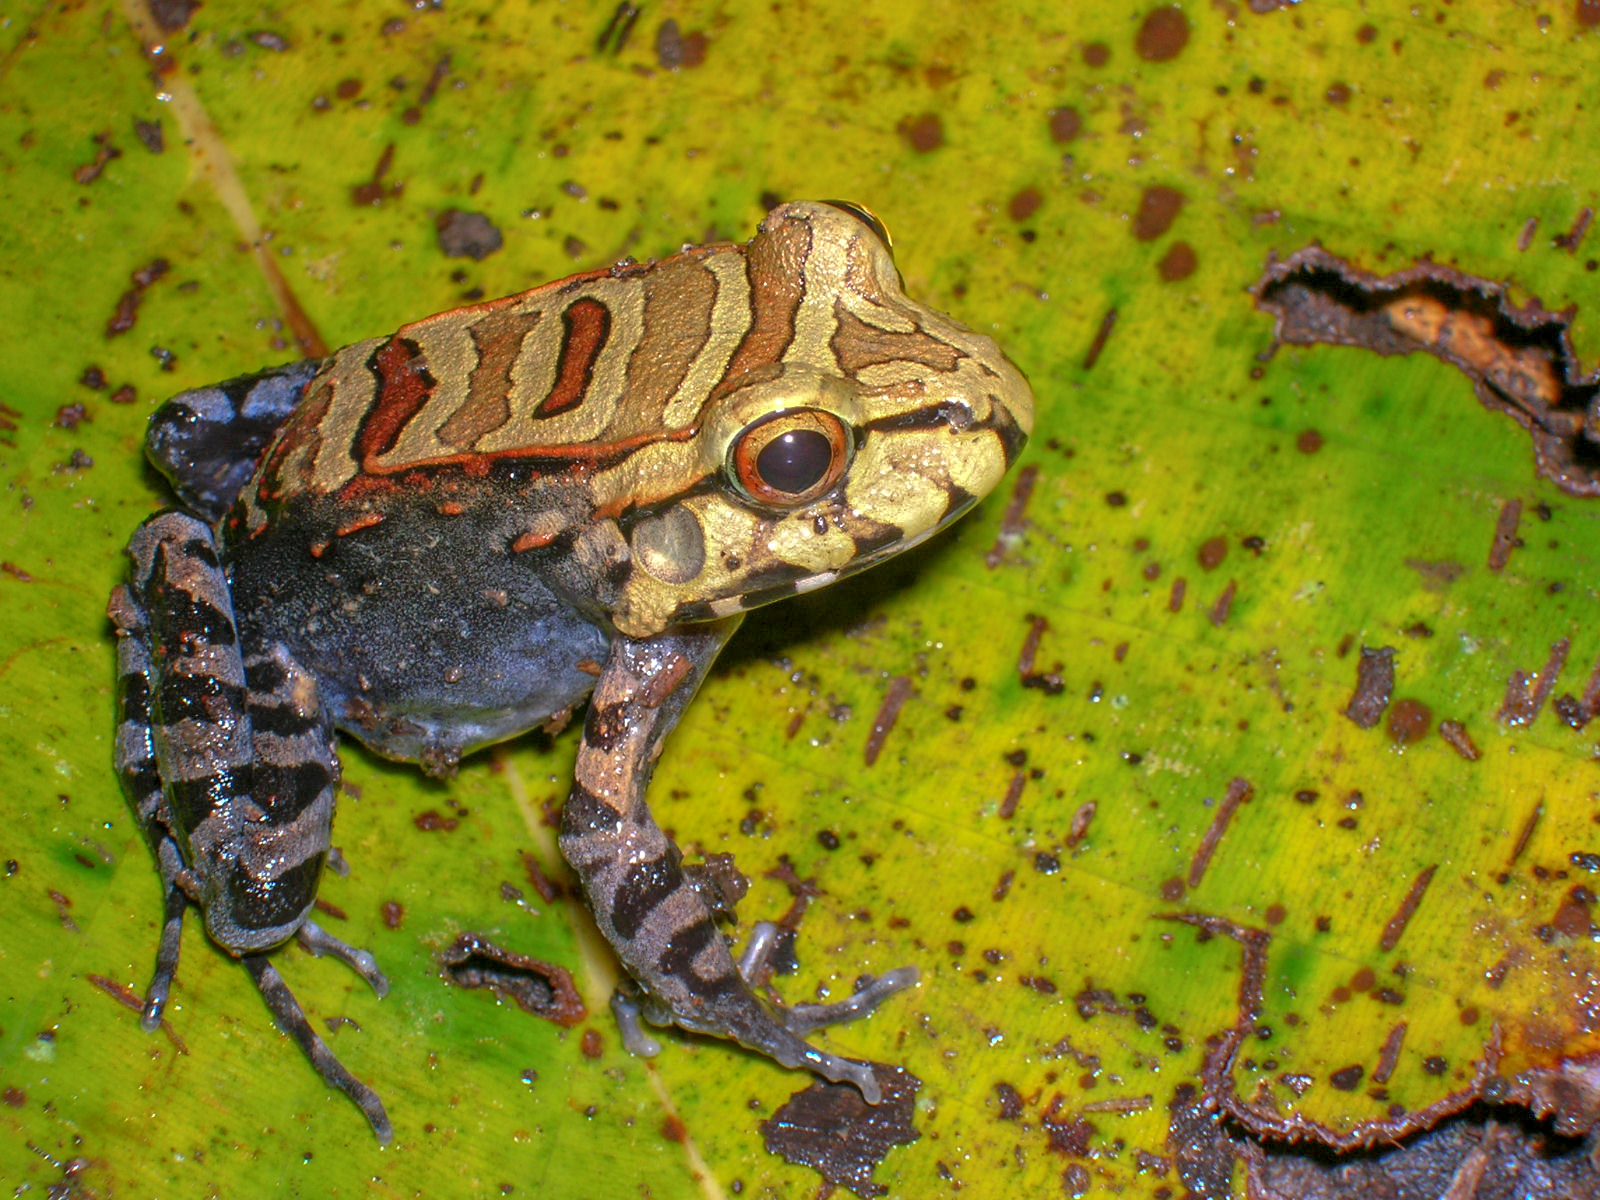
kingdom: Animalia
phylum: Chordata
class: Amphibia
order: Anura
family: Leptodactylidae
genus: Leptodactylus
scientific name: Leptodactylus knudseni
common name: Knudsen's frog
